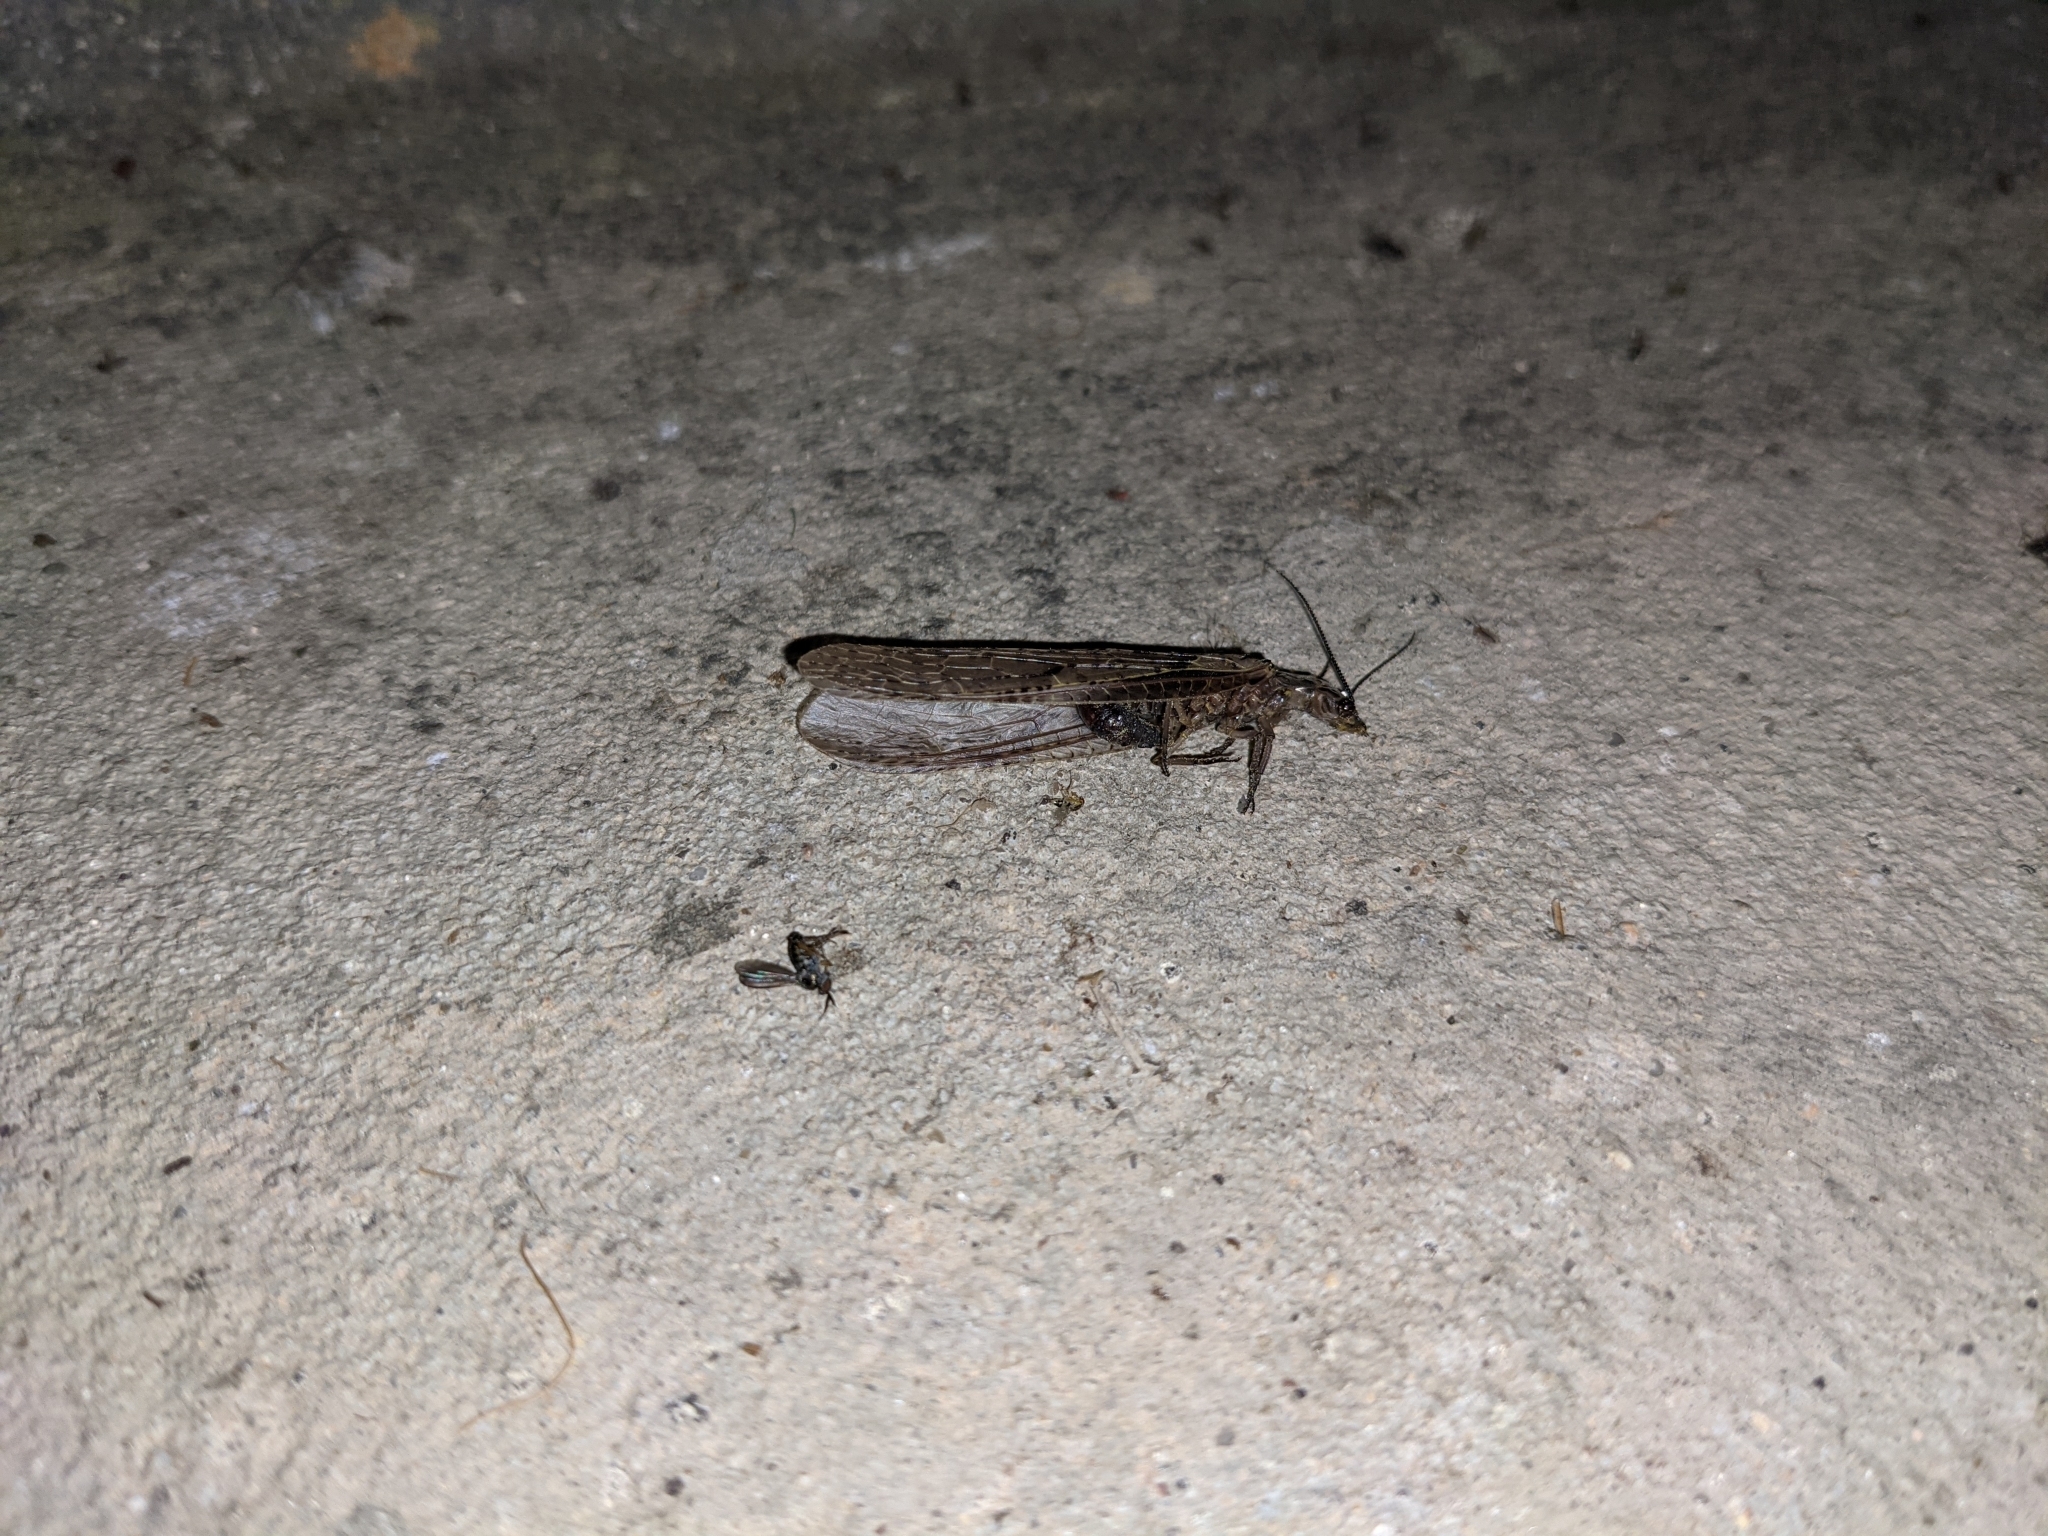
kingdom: Animalia
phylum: Arthropoda
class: Insecta
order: Megaloptera
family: Corydalidae
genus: Chauliodes
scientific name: Chauliodes rastricornis
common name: Spring fishfly
